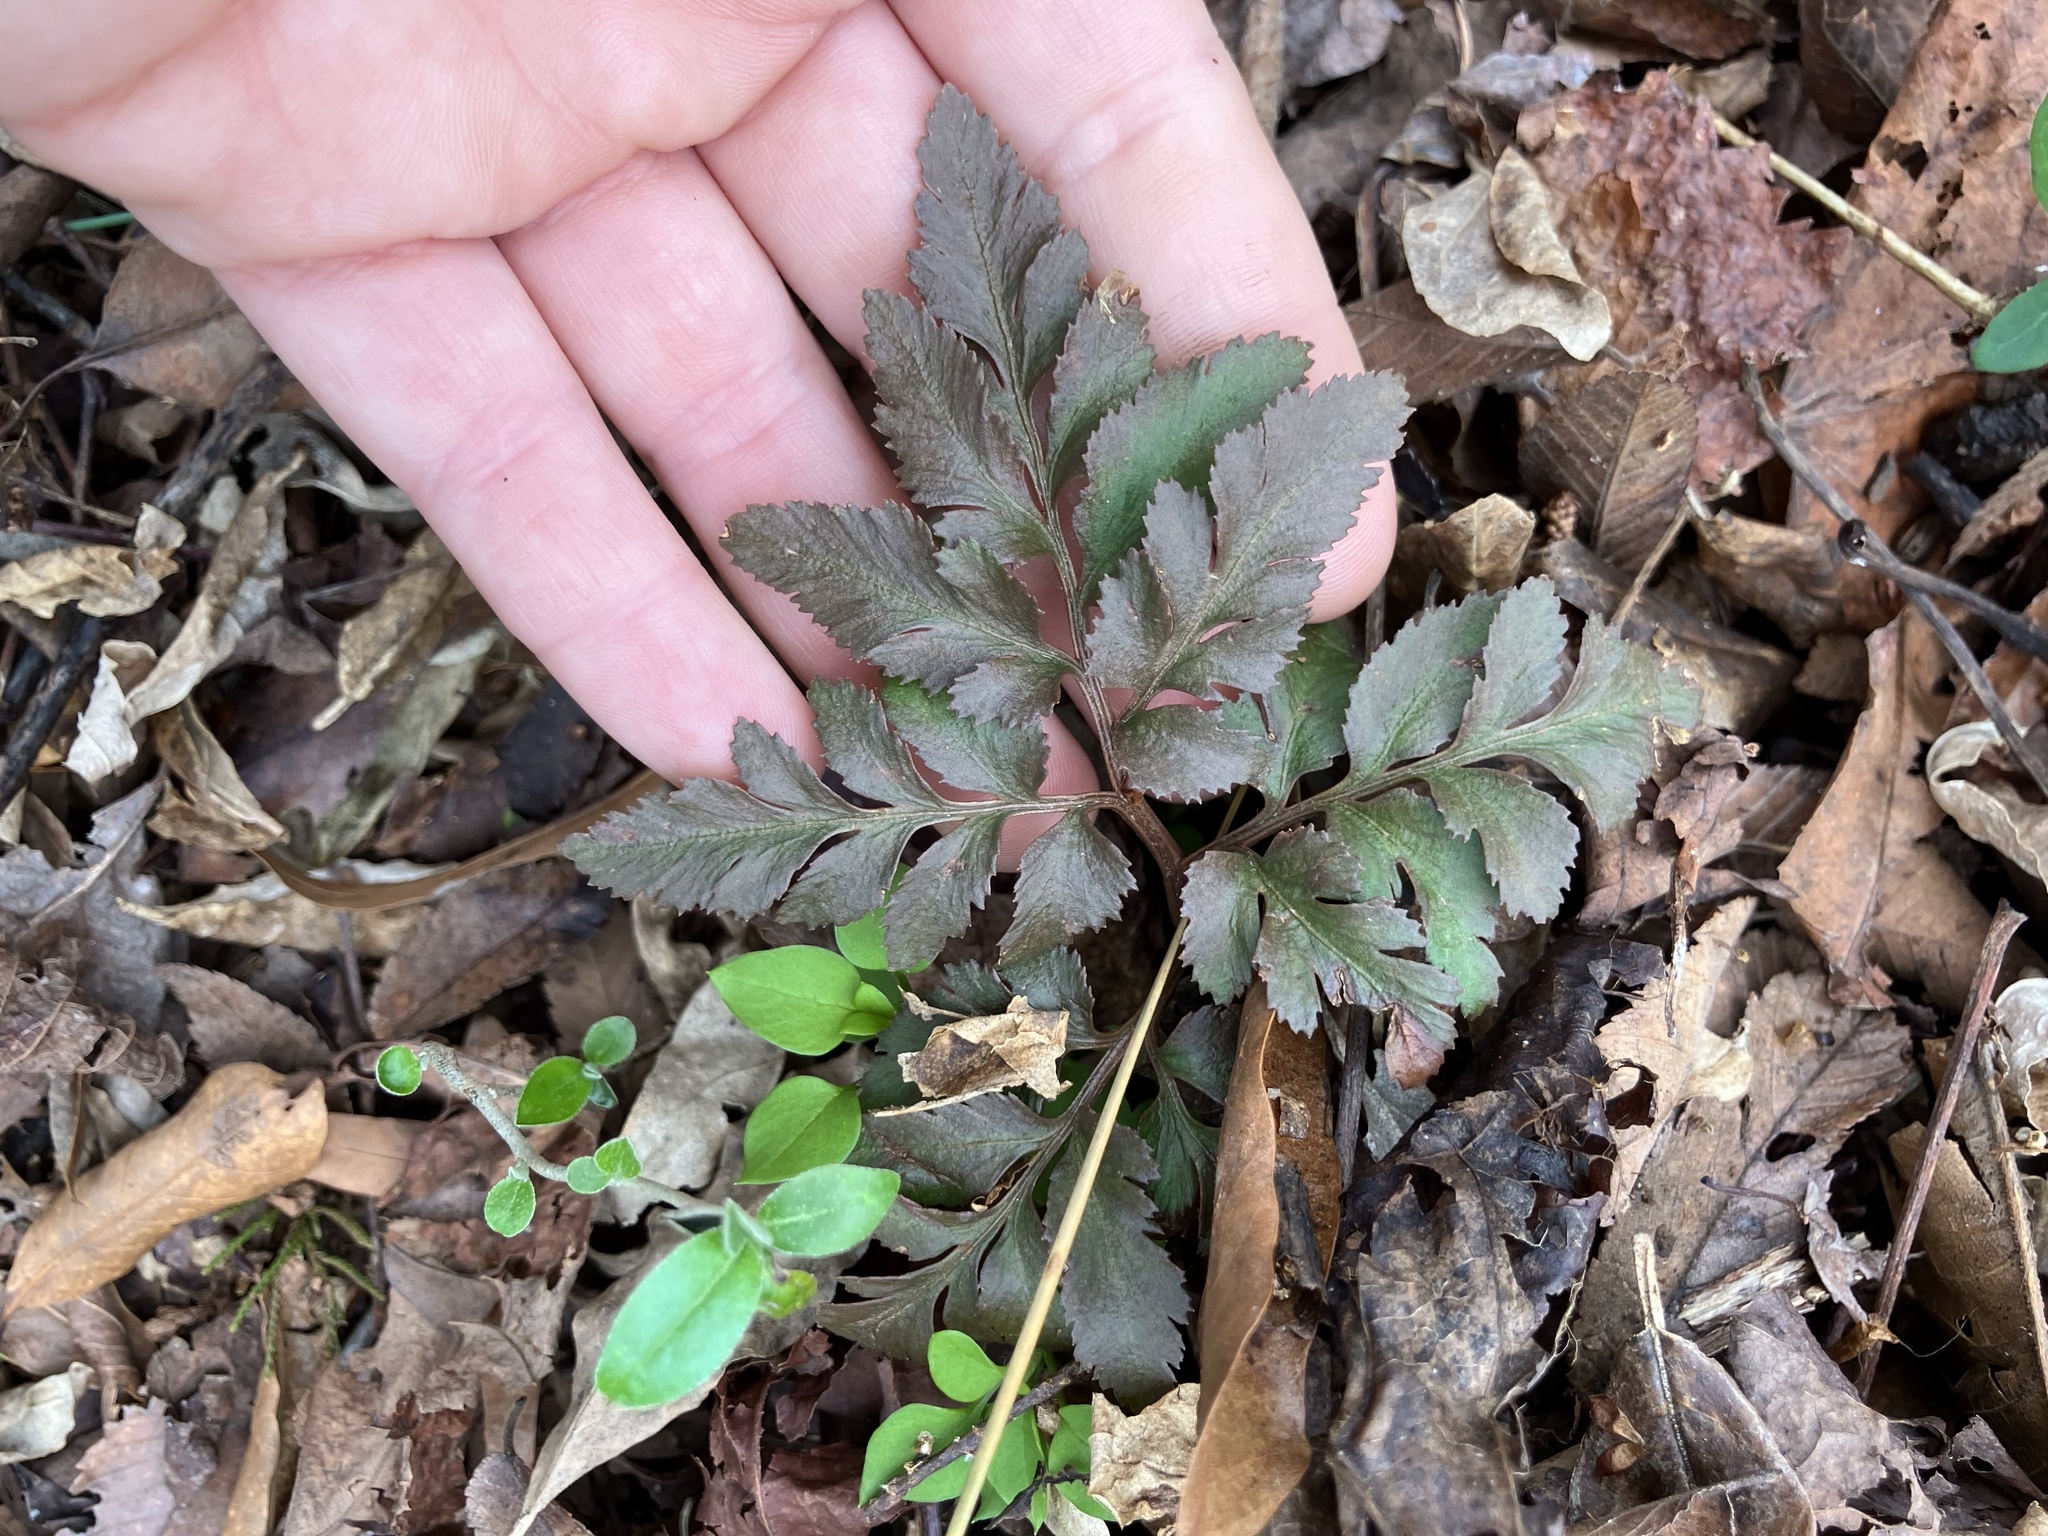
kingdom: Plantae
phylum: Tracheophyta
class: Polypodiopsida
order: Ophioglossales
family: Ophioglossaceae
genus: Sceptridium
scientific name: Sceptridium dissectum
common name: Cut-leaved grapefern
